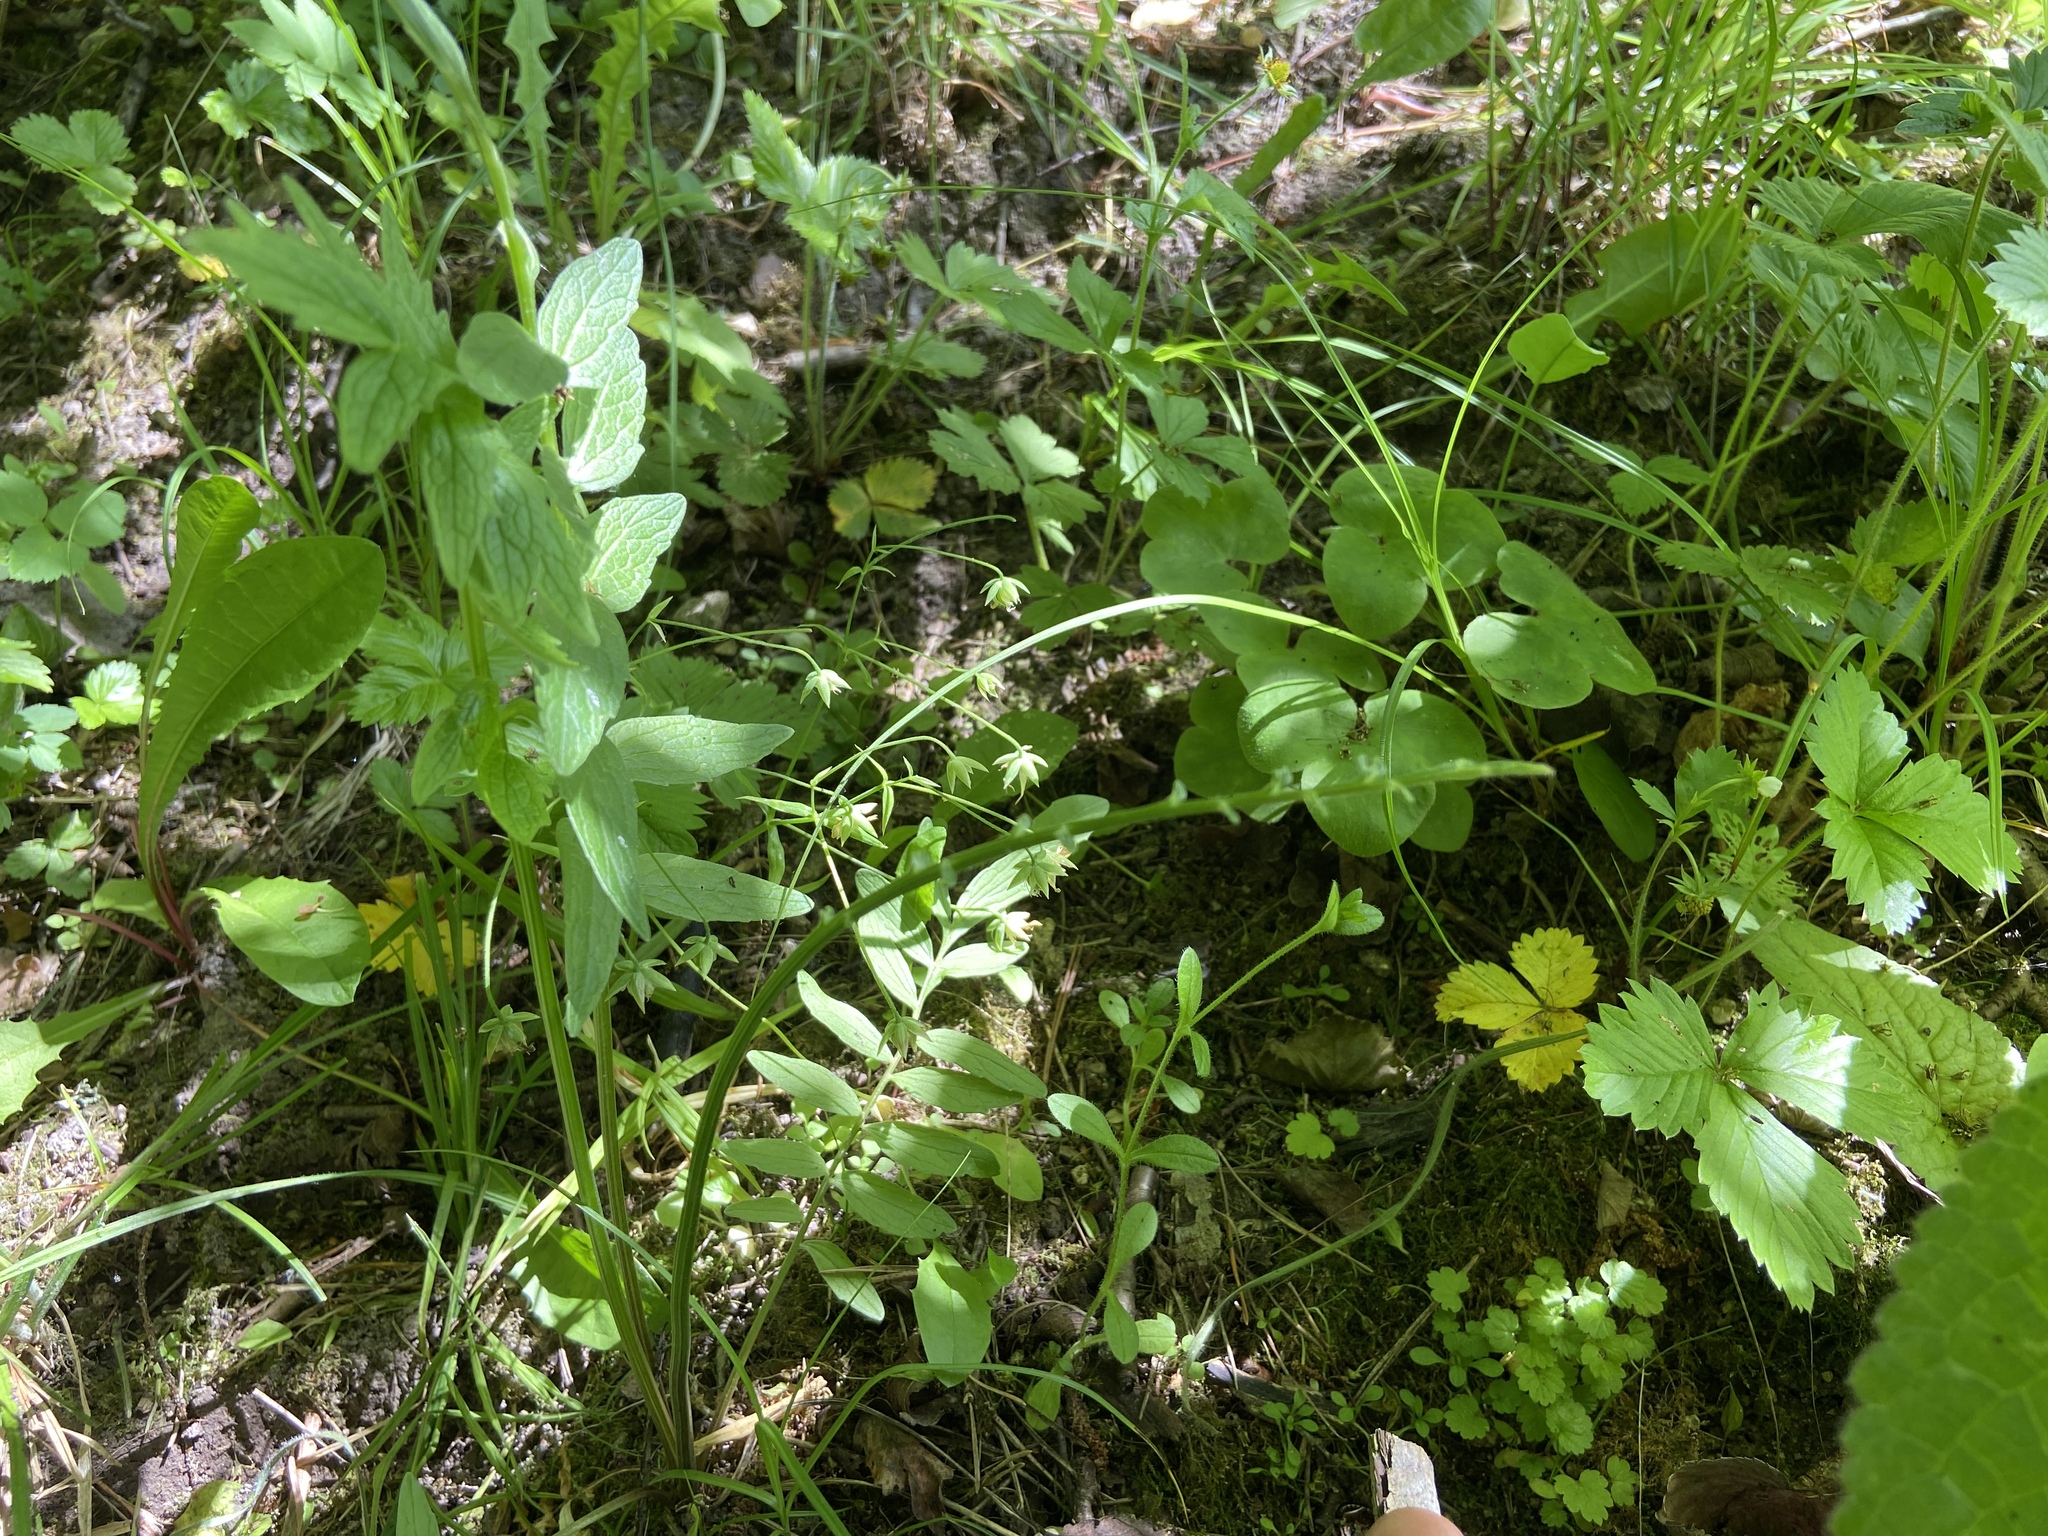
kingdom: Plantae
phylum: Tracheophyta
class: Magnoliopsida
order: Dipsacales
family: Caprifoliaceae
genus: Valeriana
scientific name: Valeriana officinalis
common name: Common valerian
